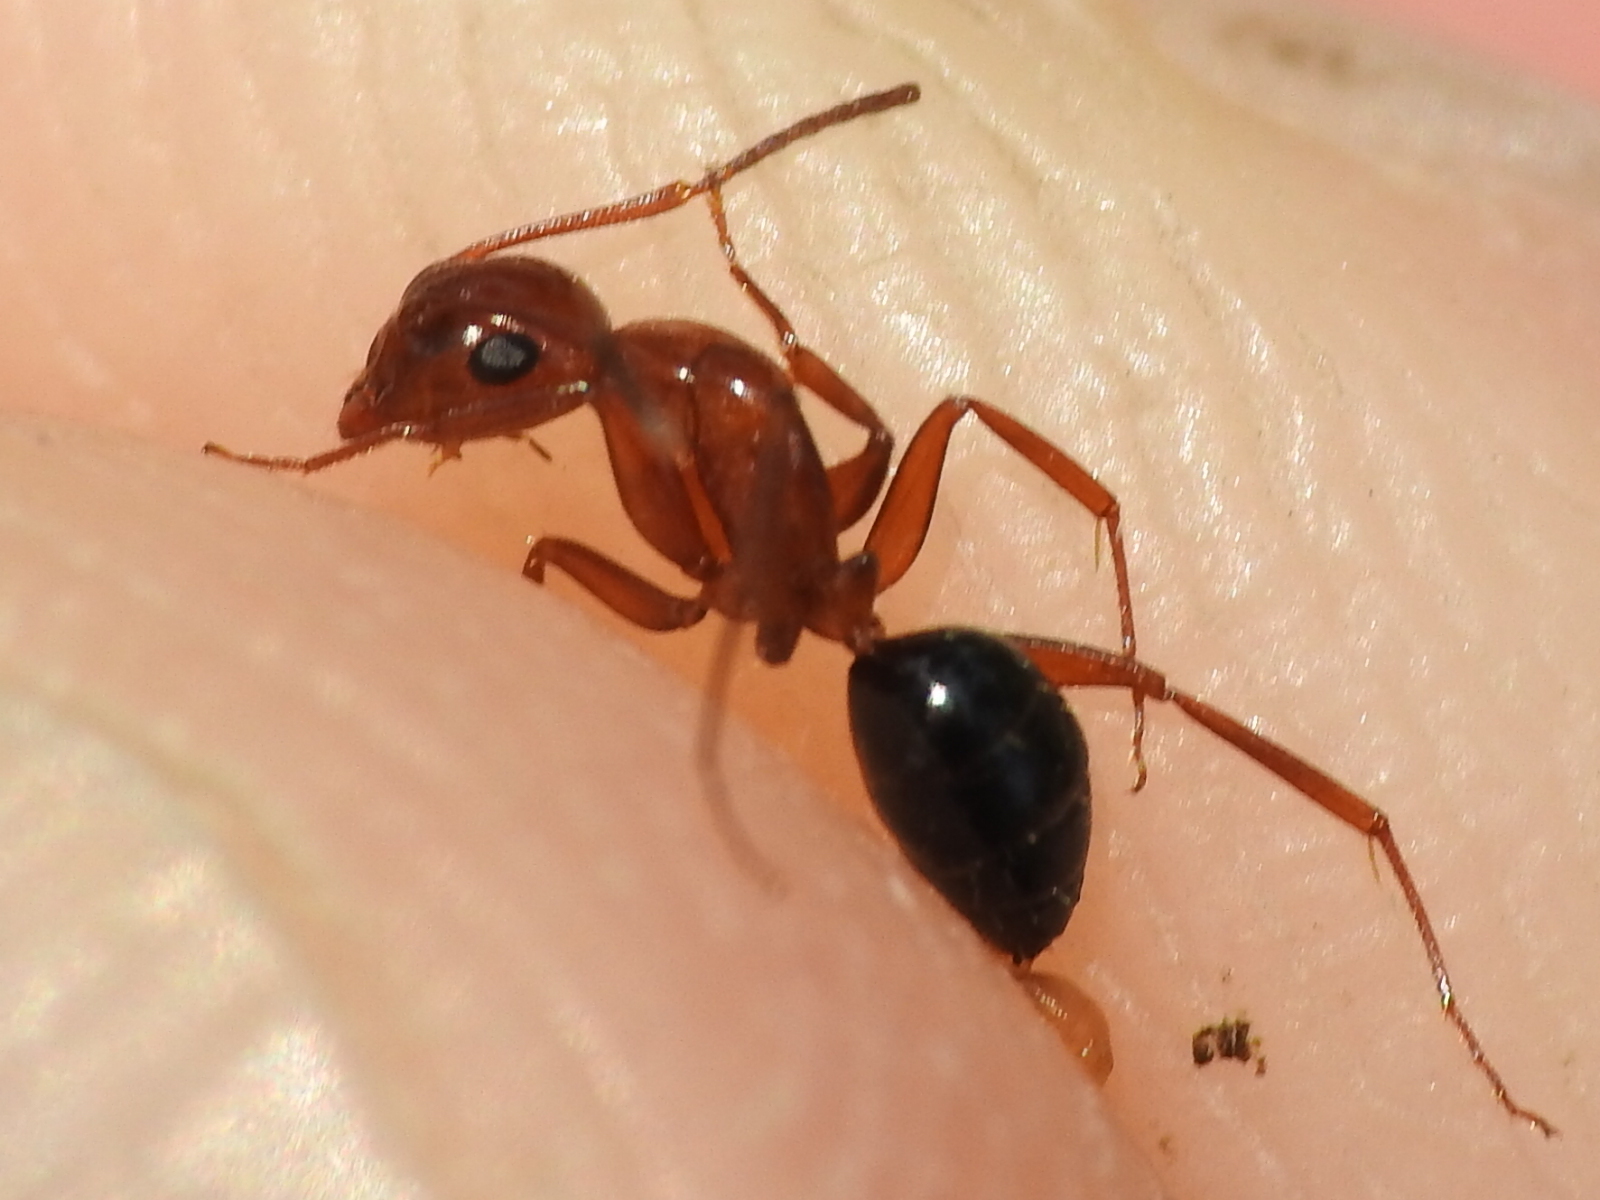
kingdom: Animalia
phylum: Arthropoda
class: Insecta
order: Hymenoptera
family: Formicidae
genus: Camponotus
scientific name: Camponotus decipiens
